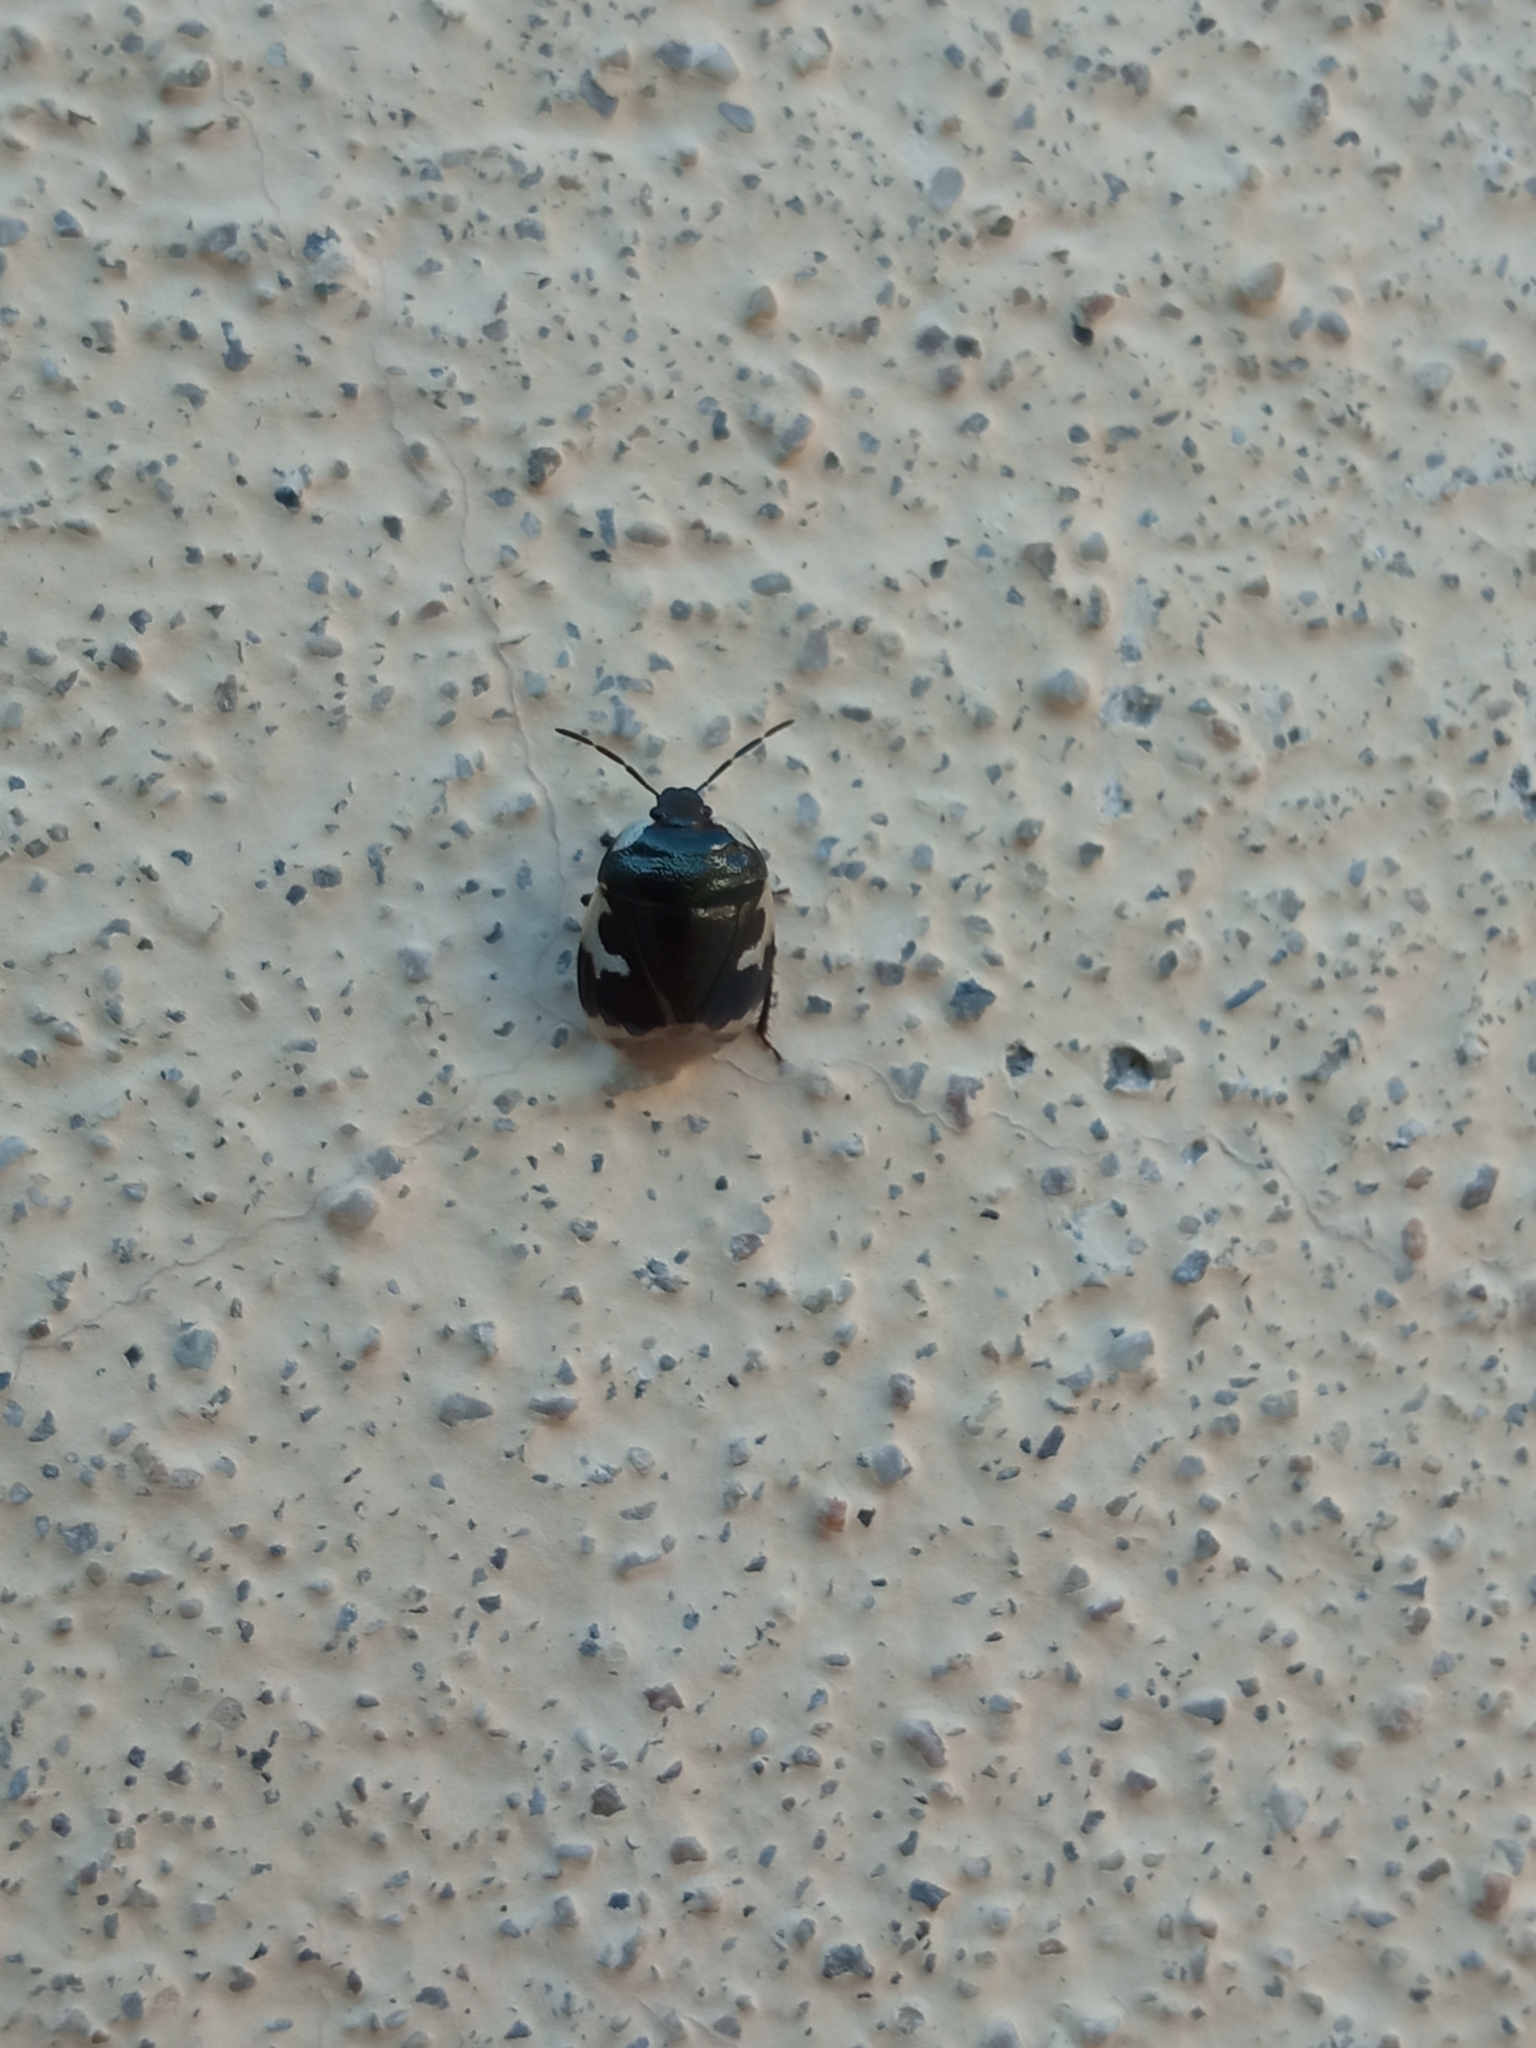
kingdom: Animalia
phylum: Arthropoda
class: Insecta
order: Hemiptera
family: Cydnidae
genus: Tritomegas
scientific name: Tritomegas bicolor
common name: Pied shieldbug
